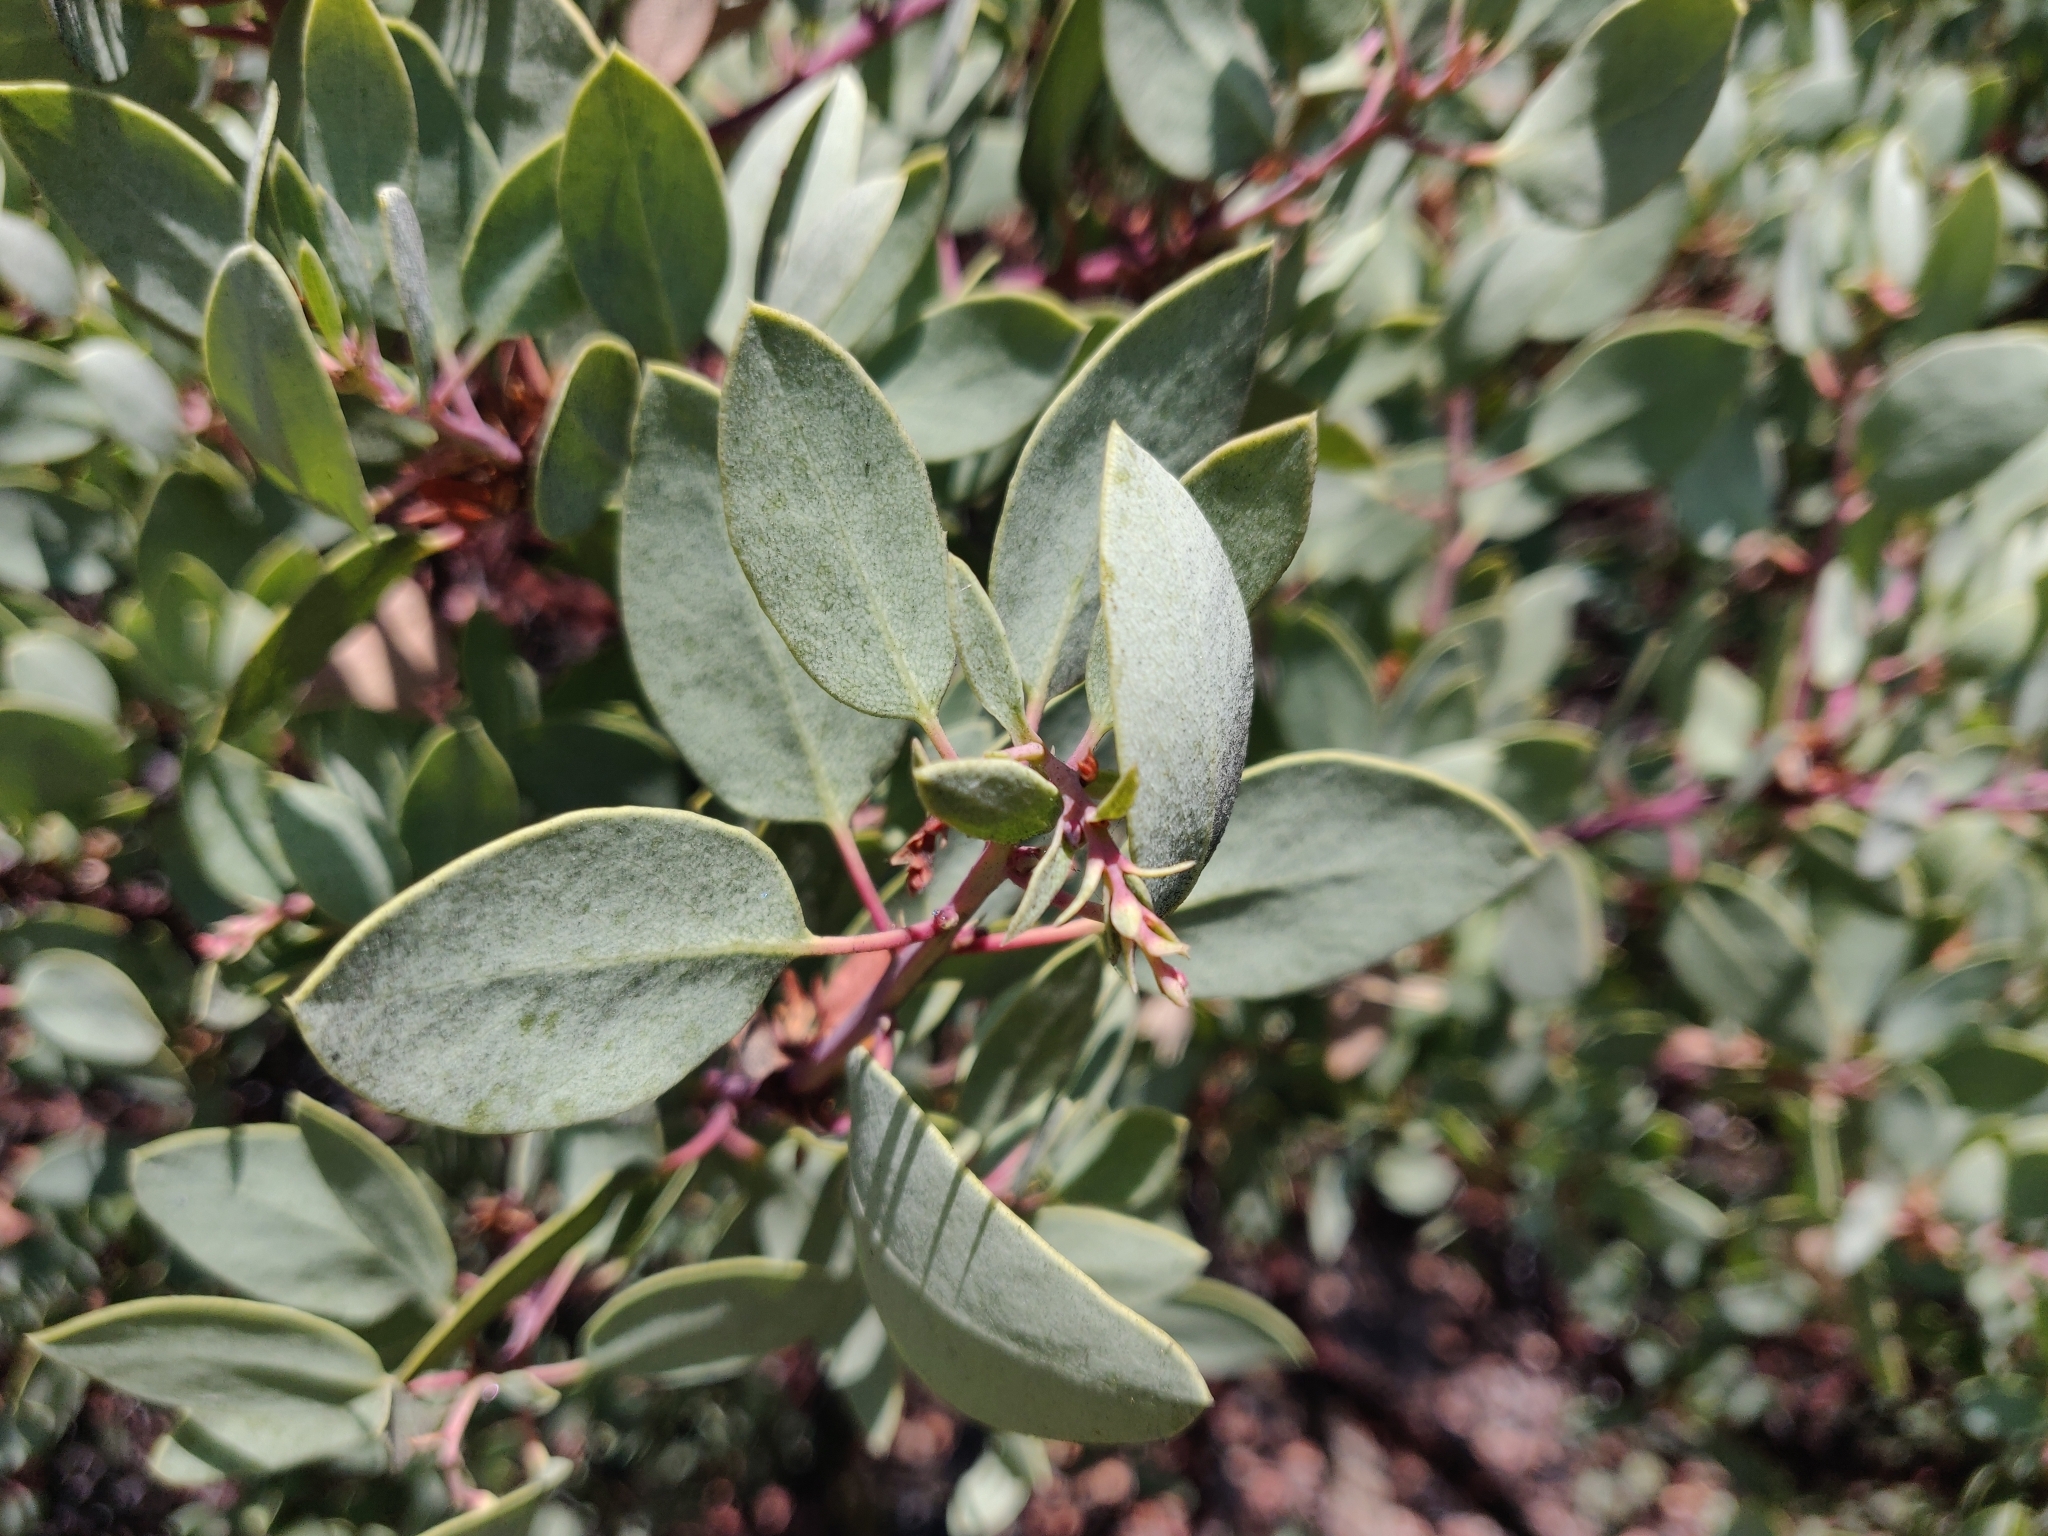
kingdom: Plantae
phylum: Tracheophyta
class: Magnoliopsida
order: Ericales
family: Ericaceae
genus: Arctostaphylos
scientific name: Arctostaphylos glauca
